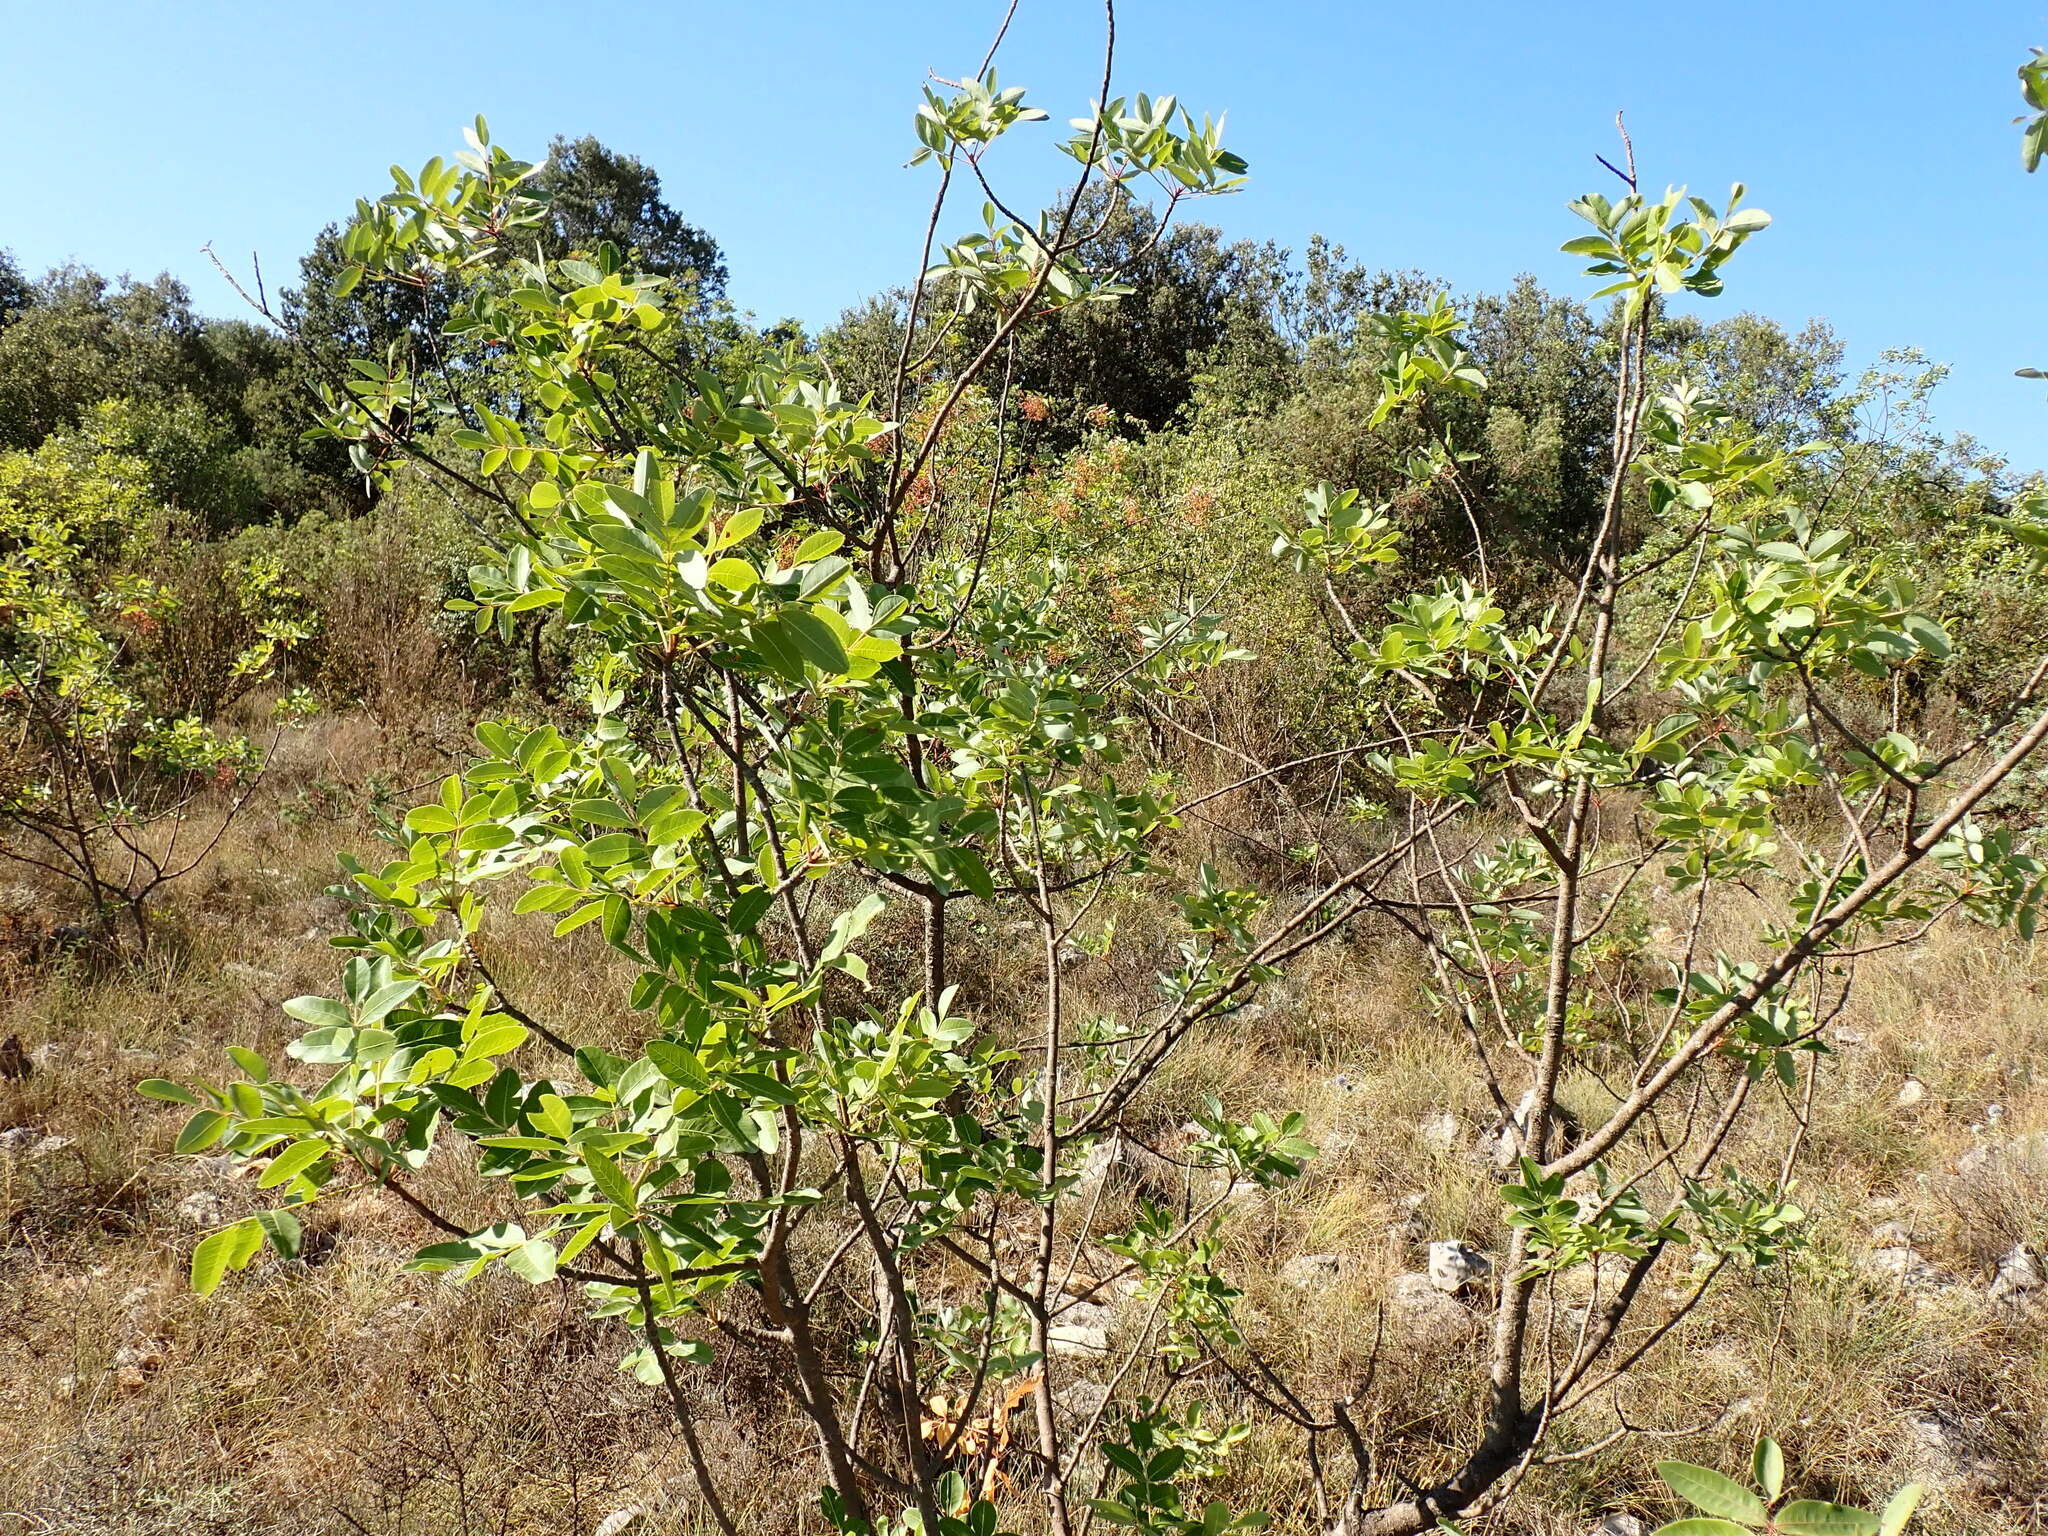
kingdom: Plantae
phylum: Tracheophyta
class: Magnoliopsida
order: Sapindales
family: Anacardiaceae
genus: Pistacia
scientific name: Pistacia terebinthus
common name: Terebinth
